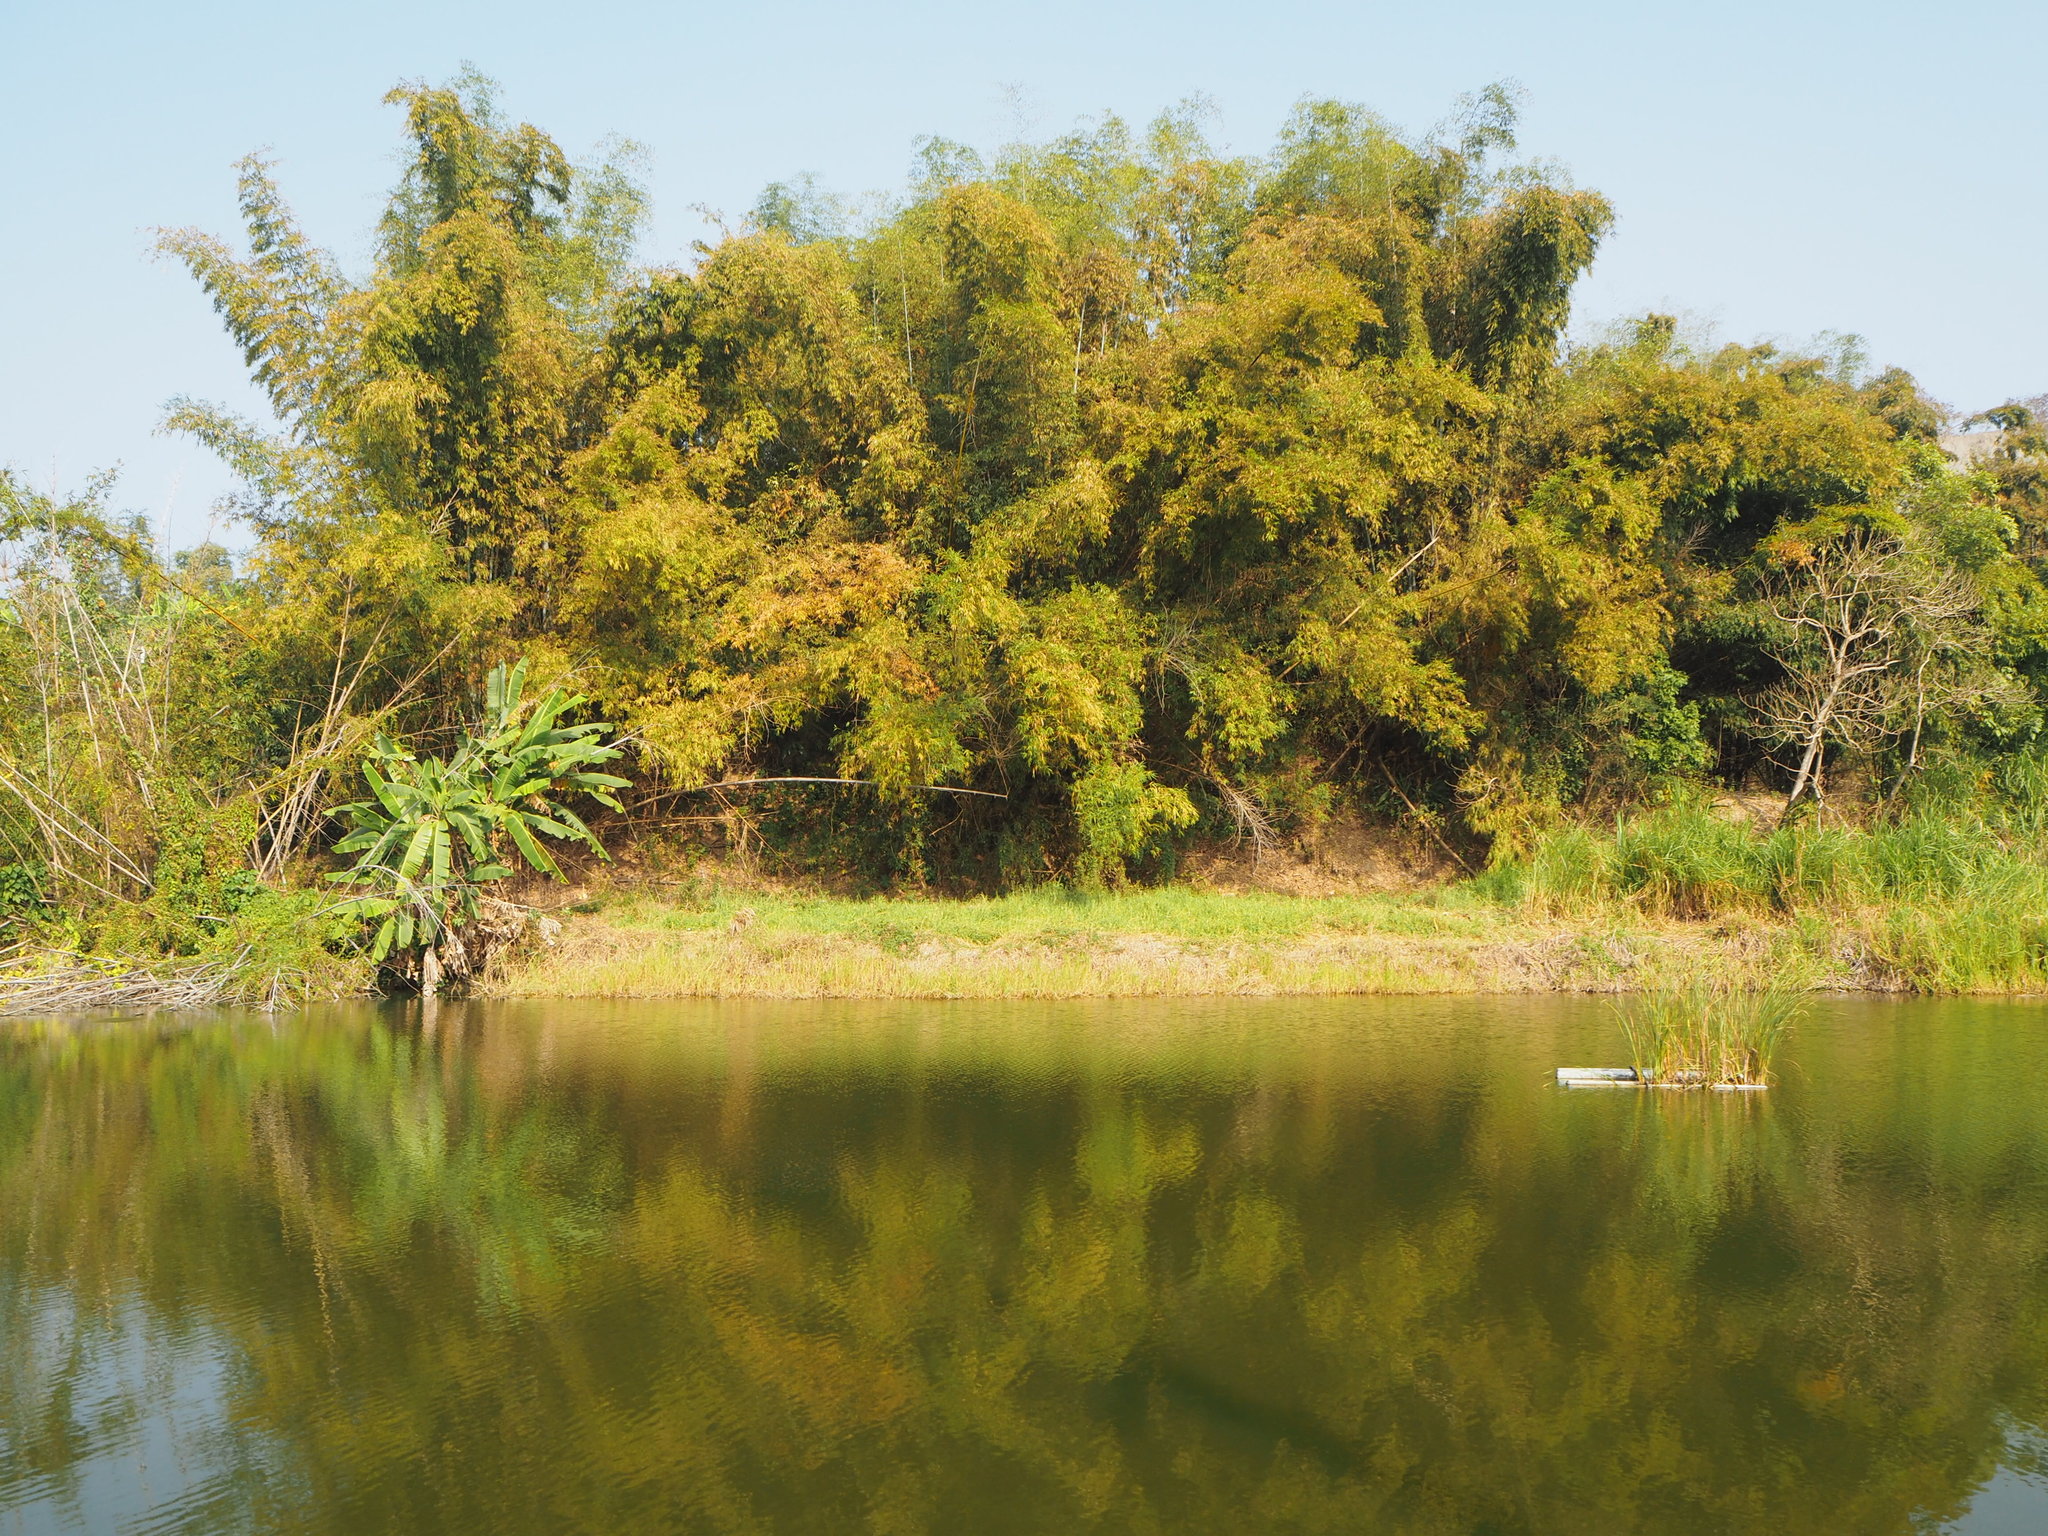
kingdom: Plantae
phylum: Tracheophyta
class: Liliopsida
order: Poales
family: Poaceae
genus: Bambusa
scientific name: Bambusa spinosa
